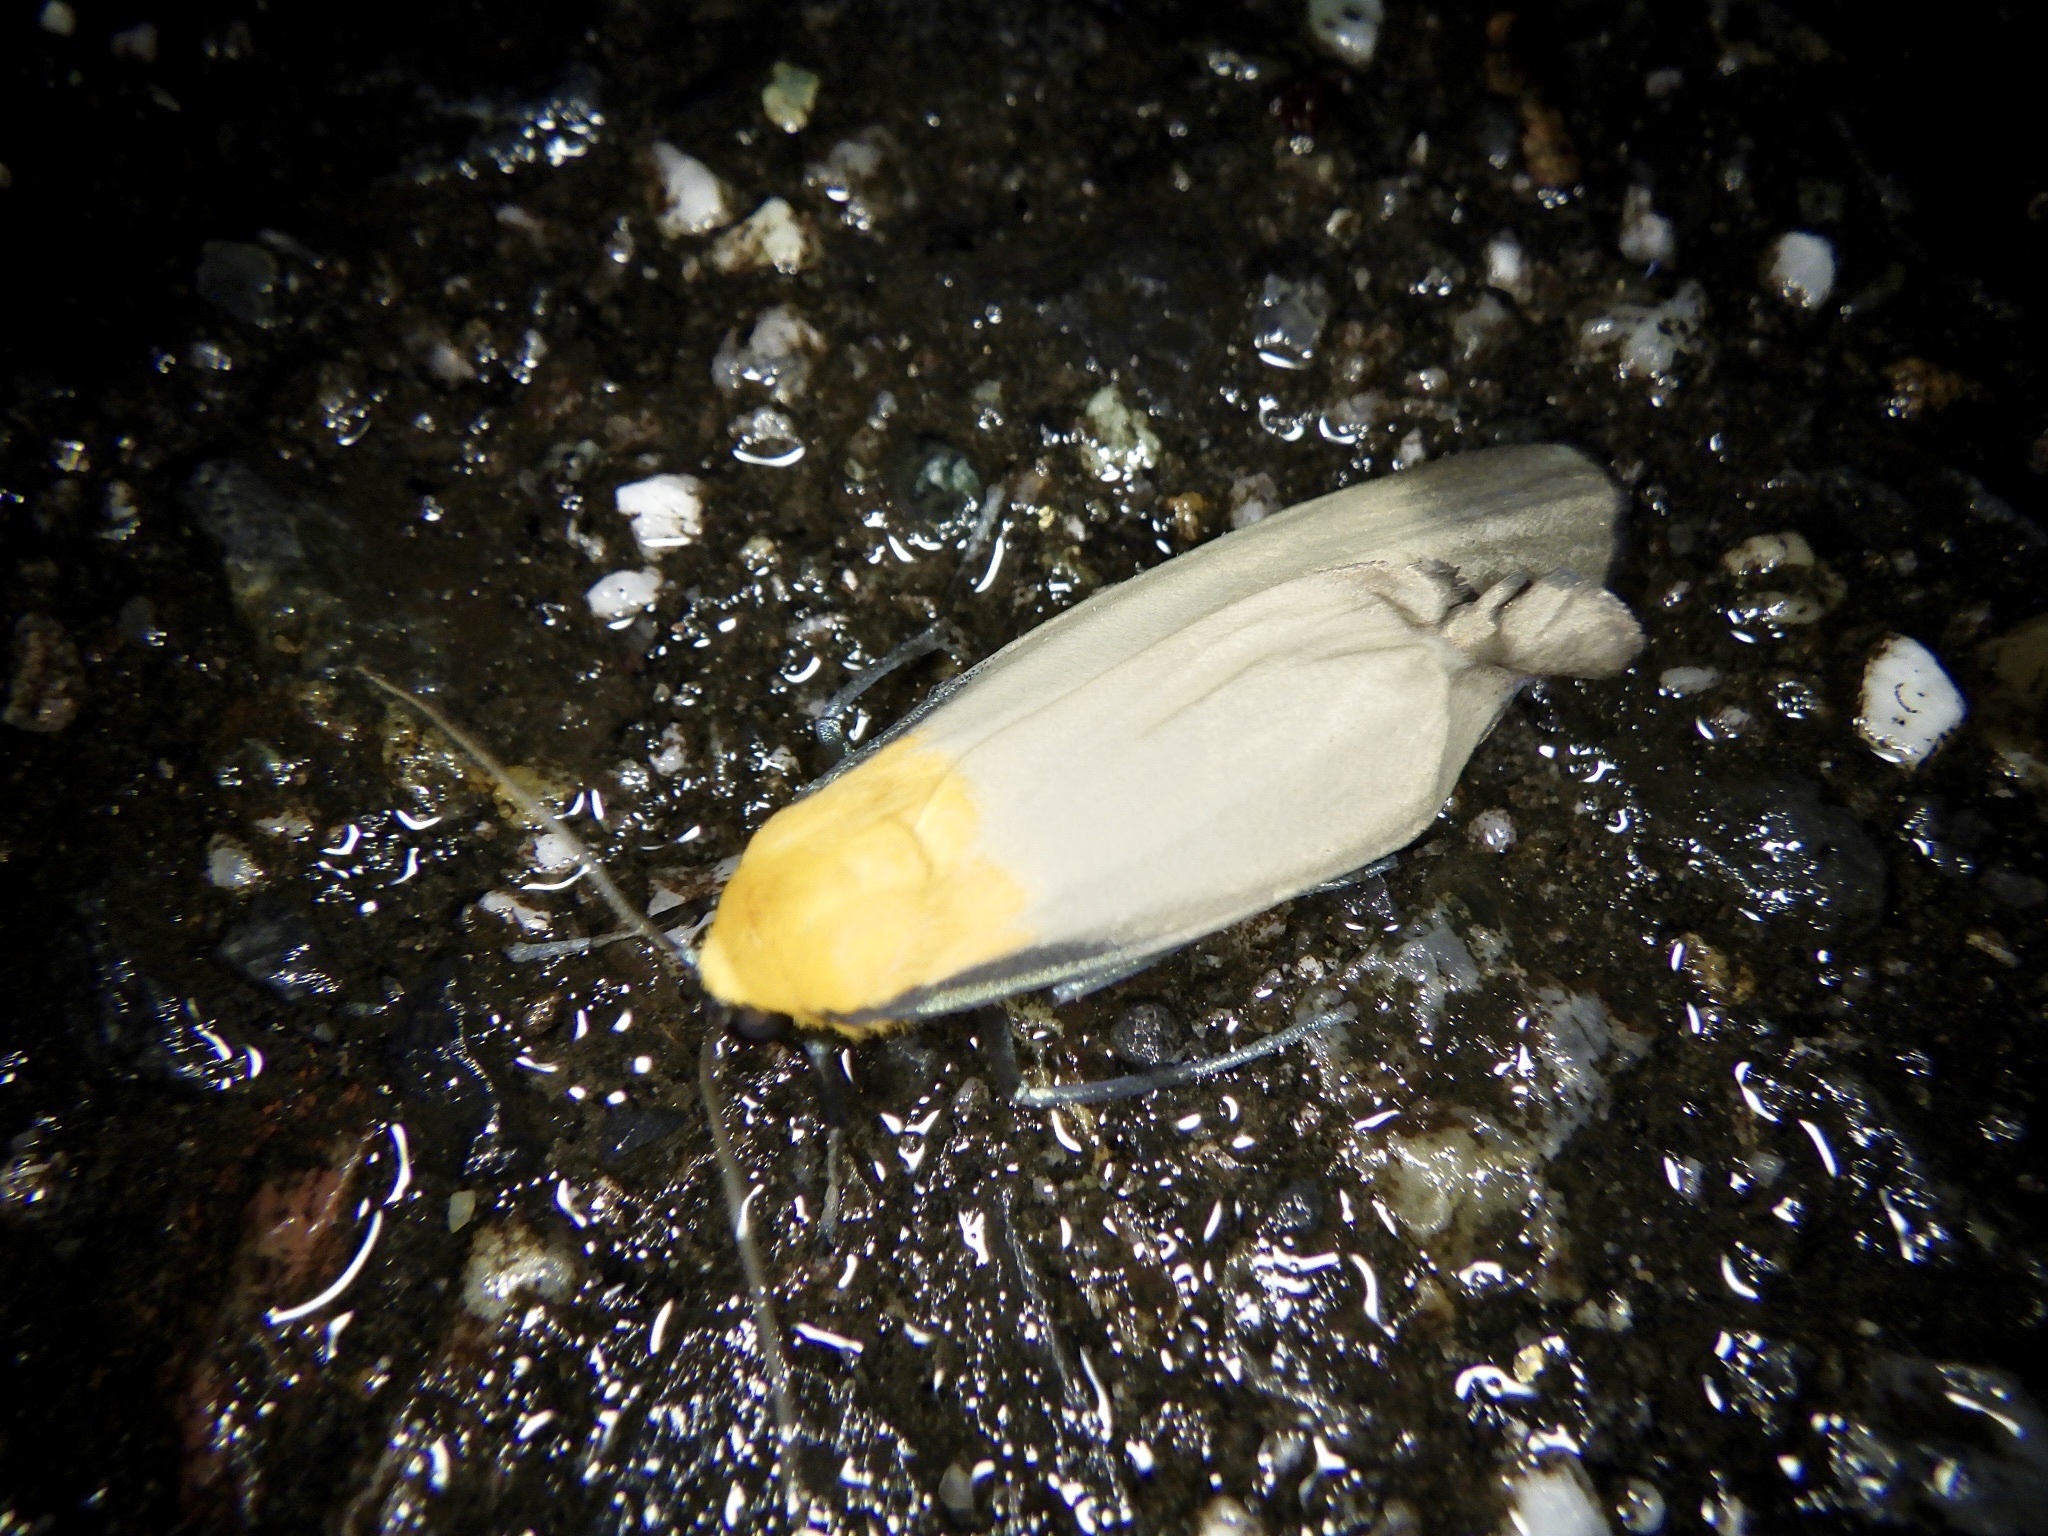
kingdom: Animalia
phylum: Arthropoda
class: Insecta
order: Lepidoptera
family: Erebidae
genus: Lithosia
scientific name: Lithosia quadra
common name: Four-spotted footman
